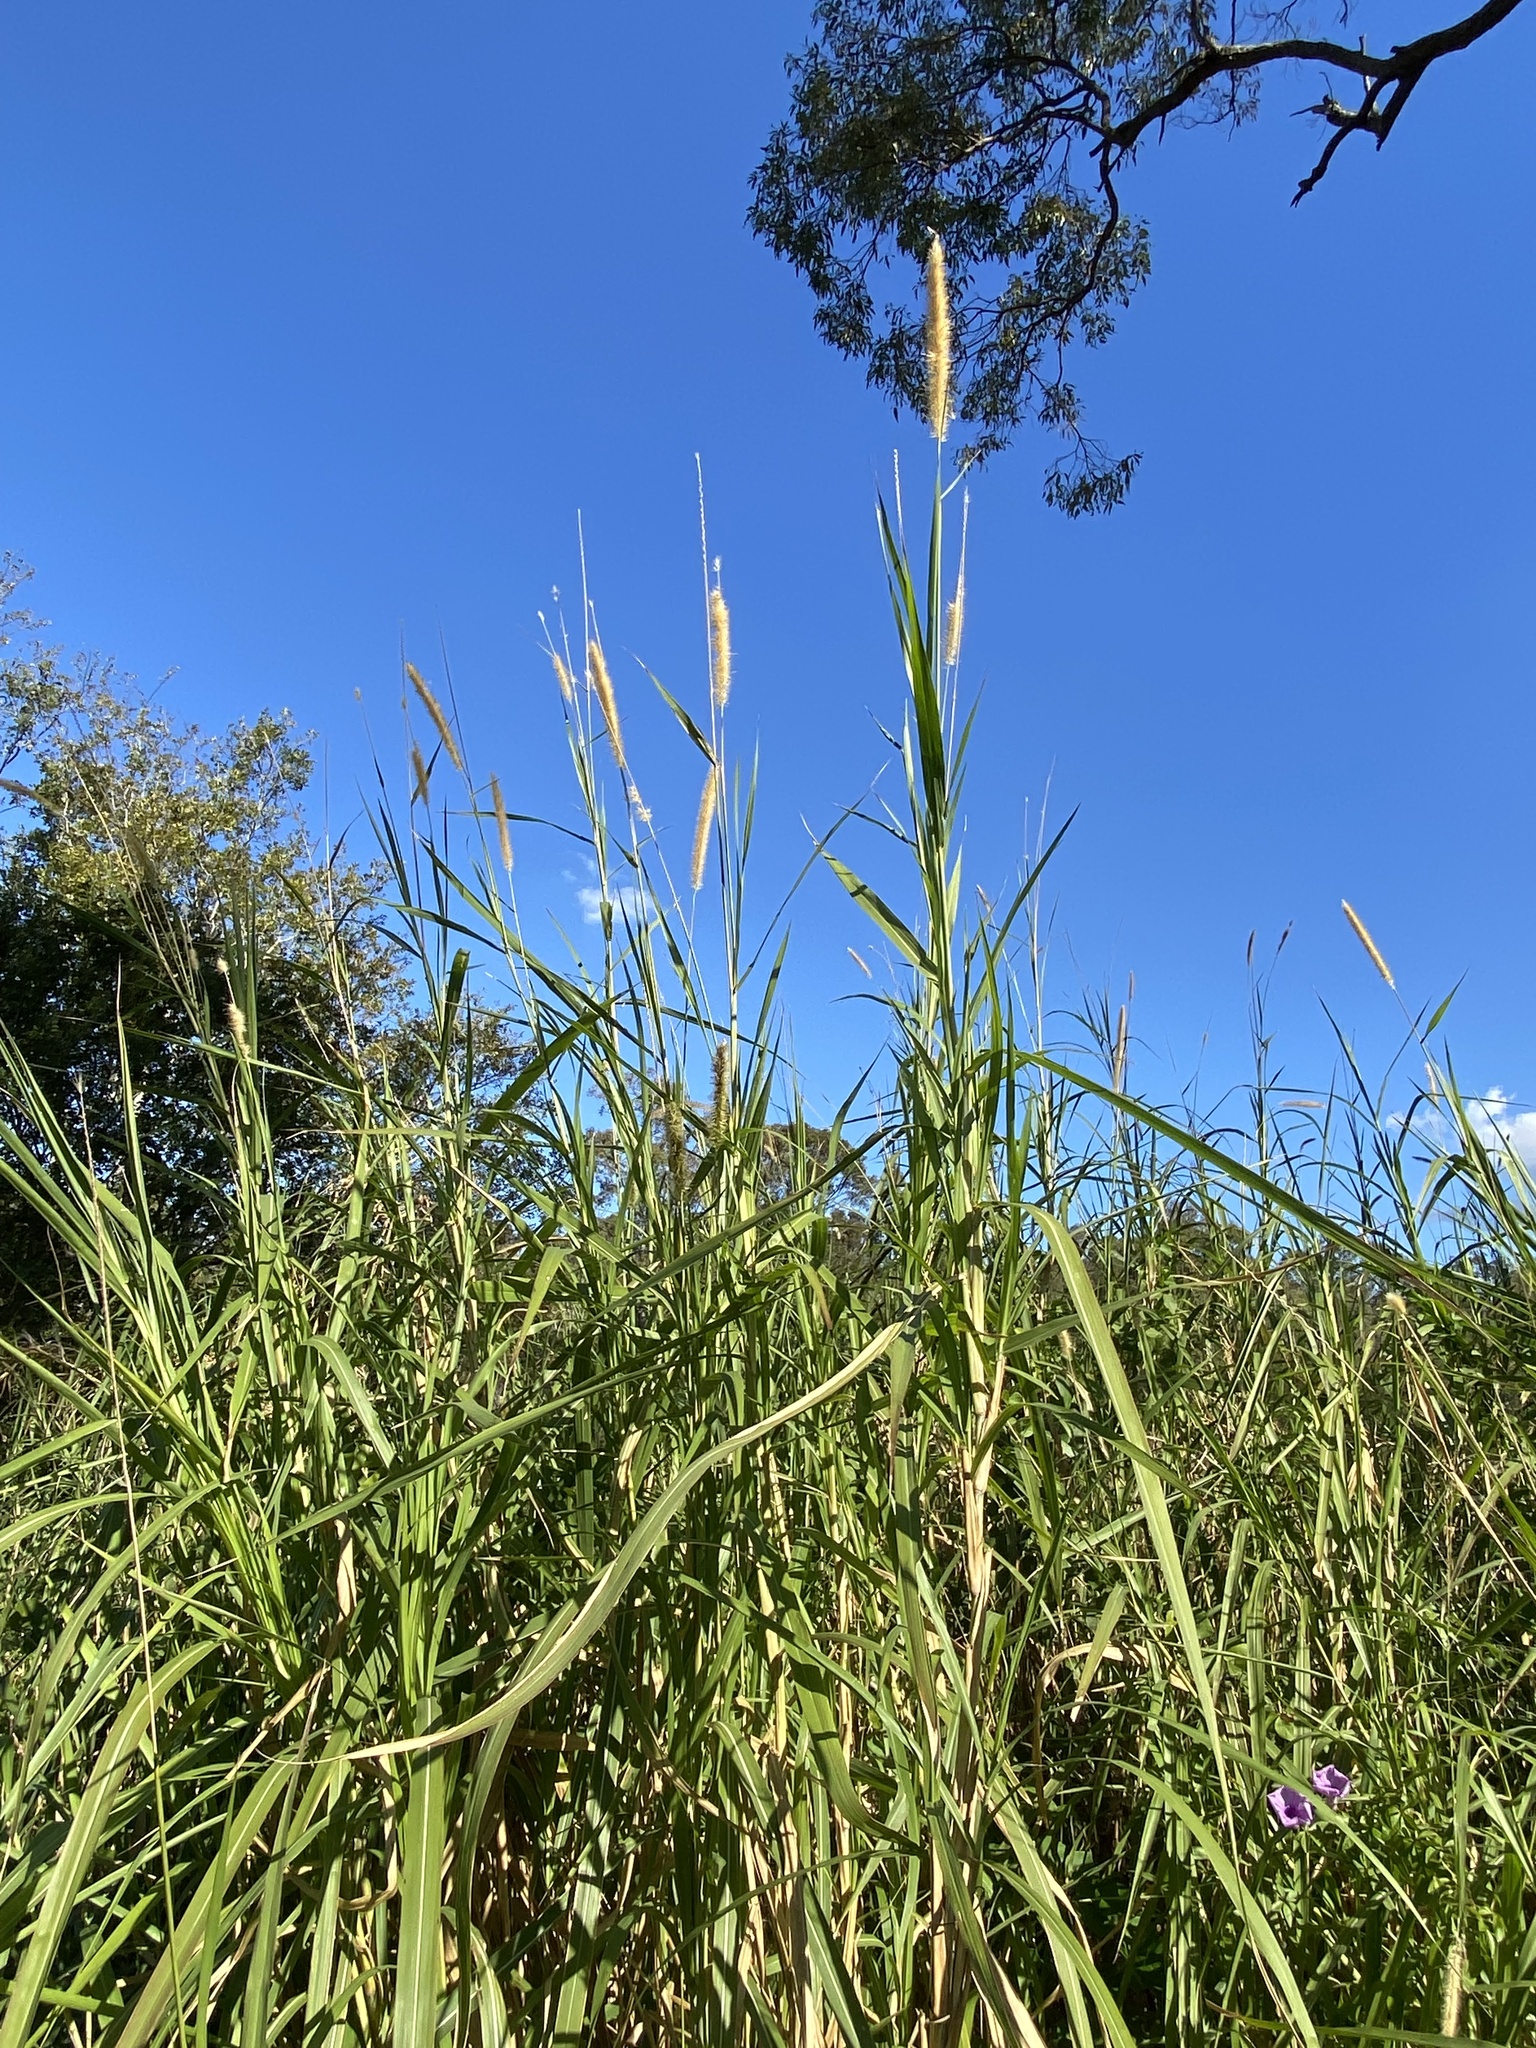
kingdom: Plantae
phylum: Tracheophyta
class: Liliopsida
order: Poales
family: Poaceae
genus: Cenchrus
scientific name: Cenchrus purpureus
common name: Elephant grass
